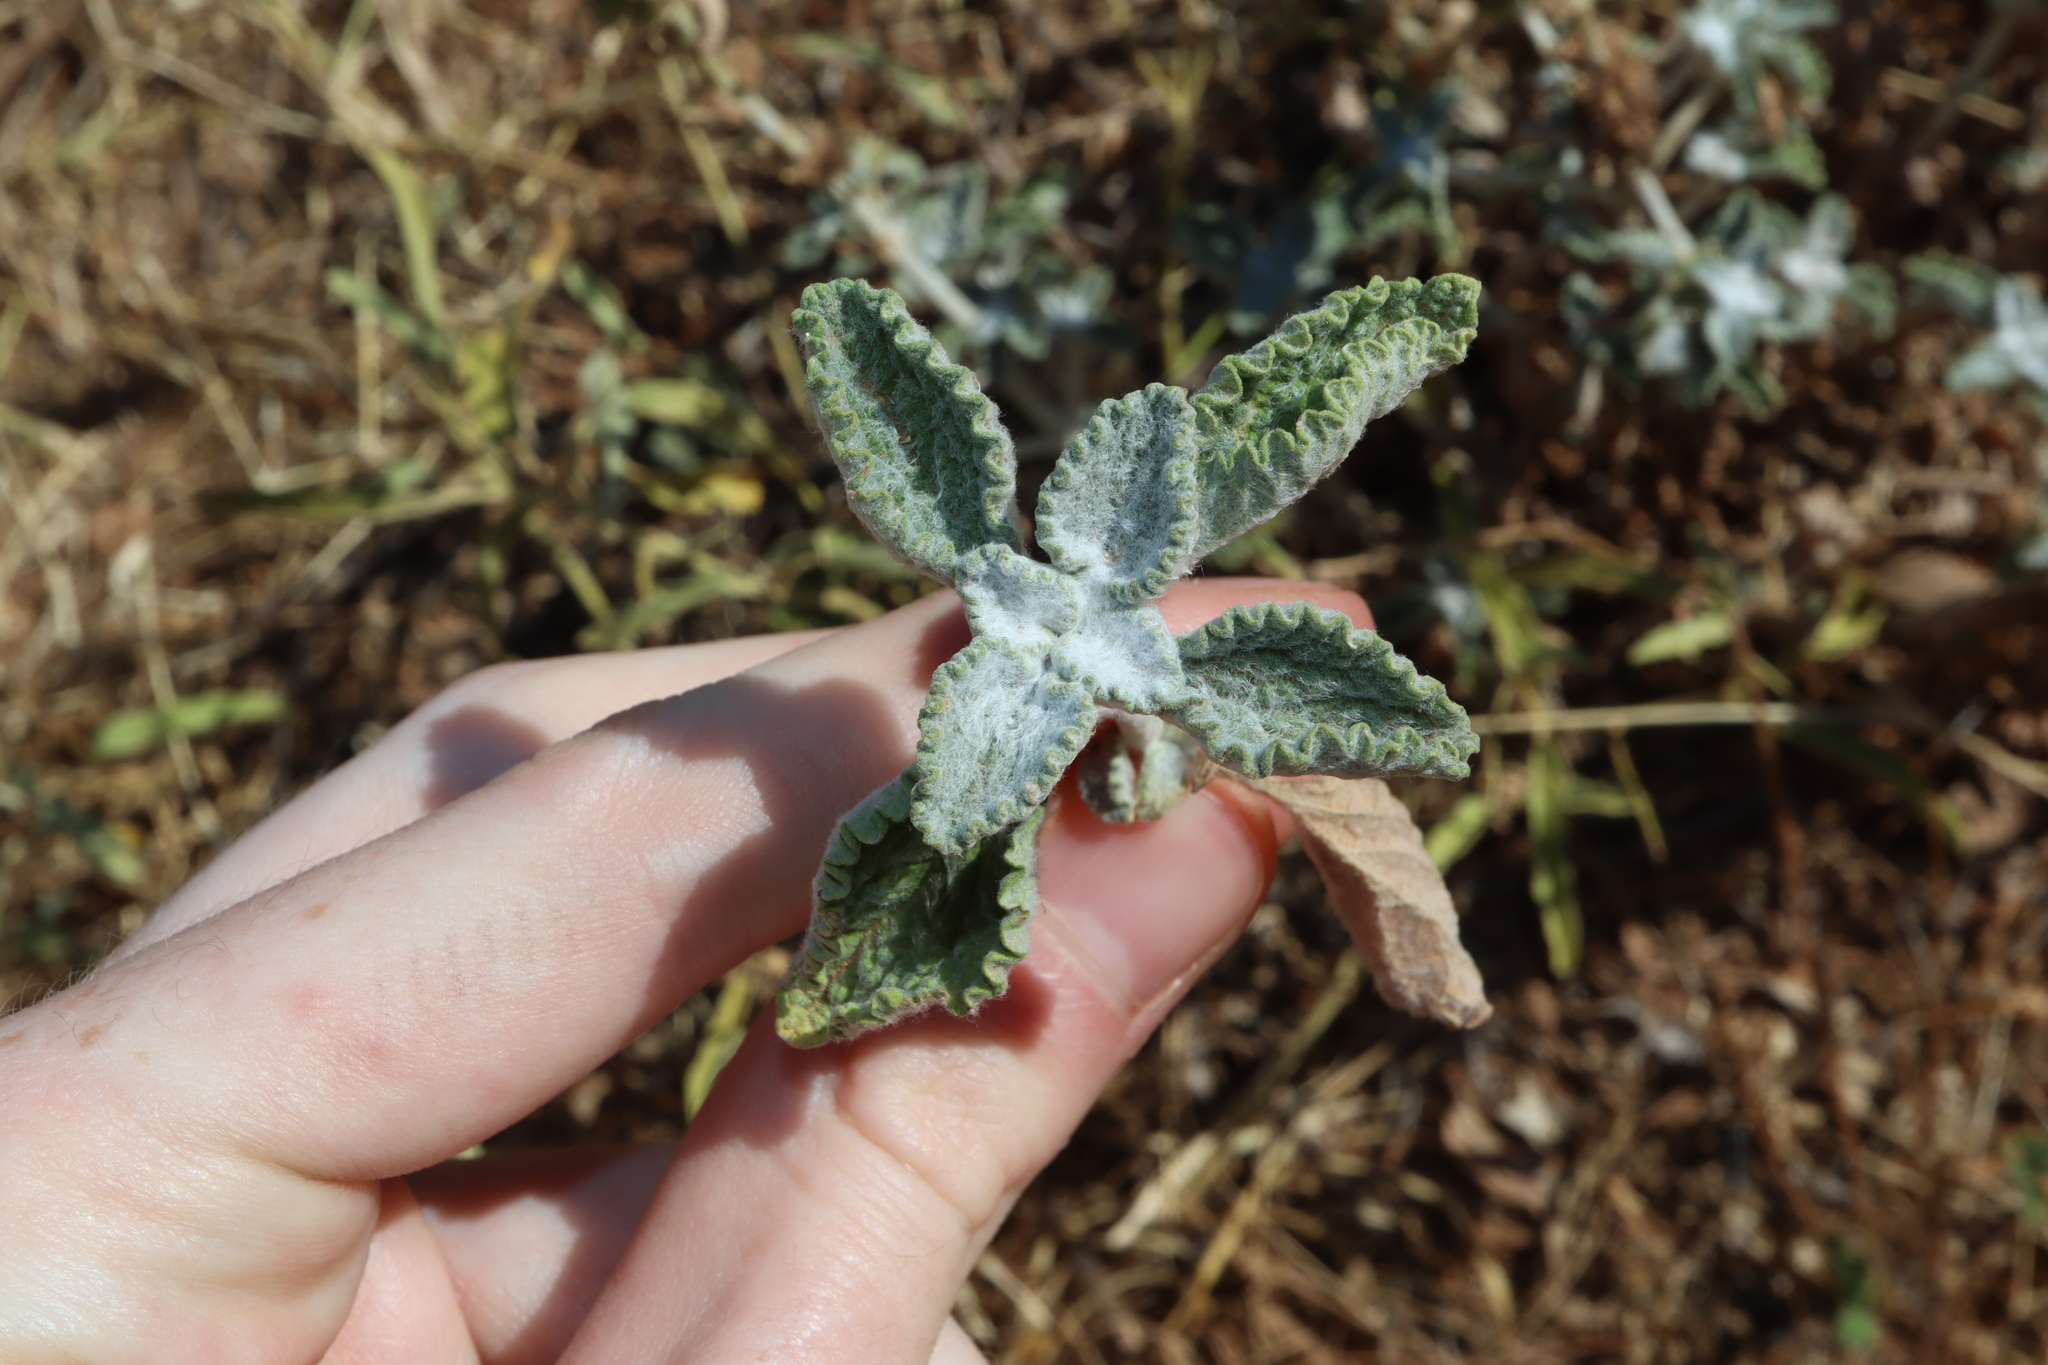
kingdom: Plantae
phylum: Tracheophyta
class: Magnoliopsida
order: Lamiales
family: Lamiaceae
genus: Marrubium
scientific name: Marrubium vulgare
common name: Horehound
